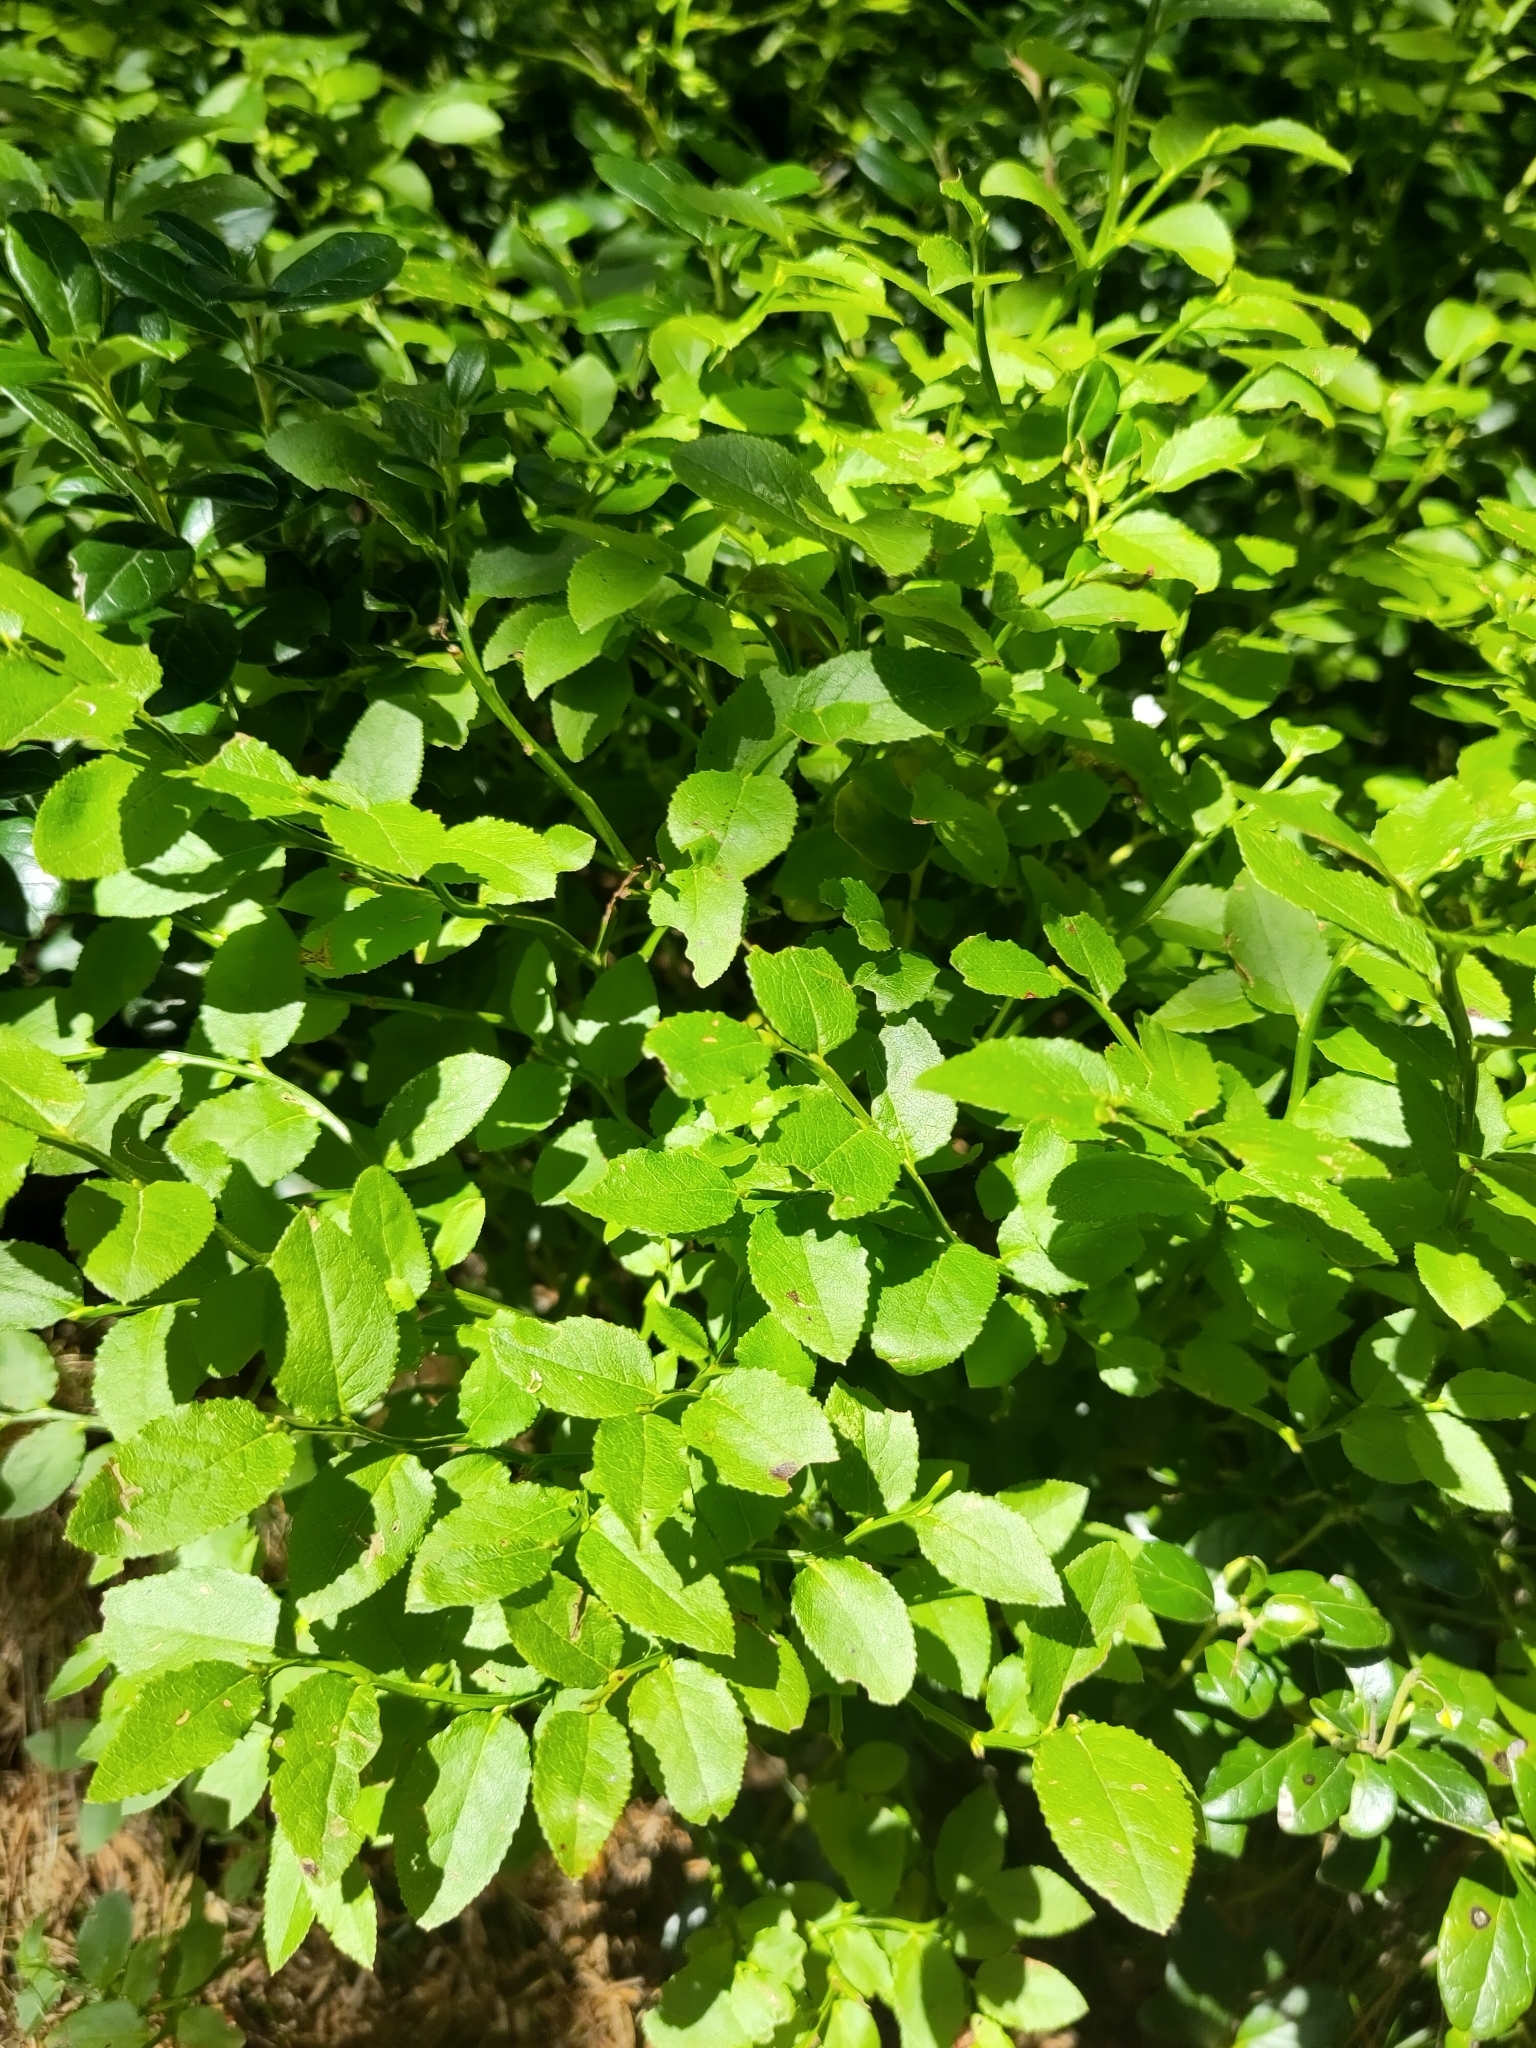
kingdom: Plantae
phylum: Tracheophyta
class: Magnoliopsida
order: Ericales
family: Ericaceae
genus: Vaccinium
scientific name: Vaccinium myrtillus
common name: Bilberry
